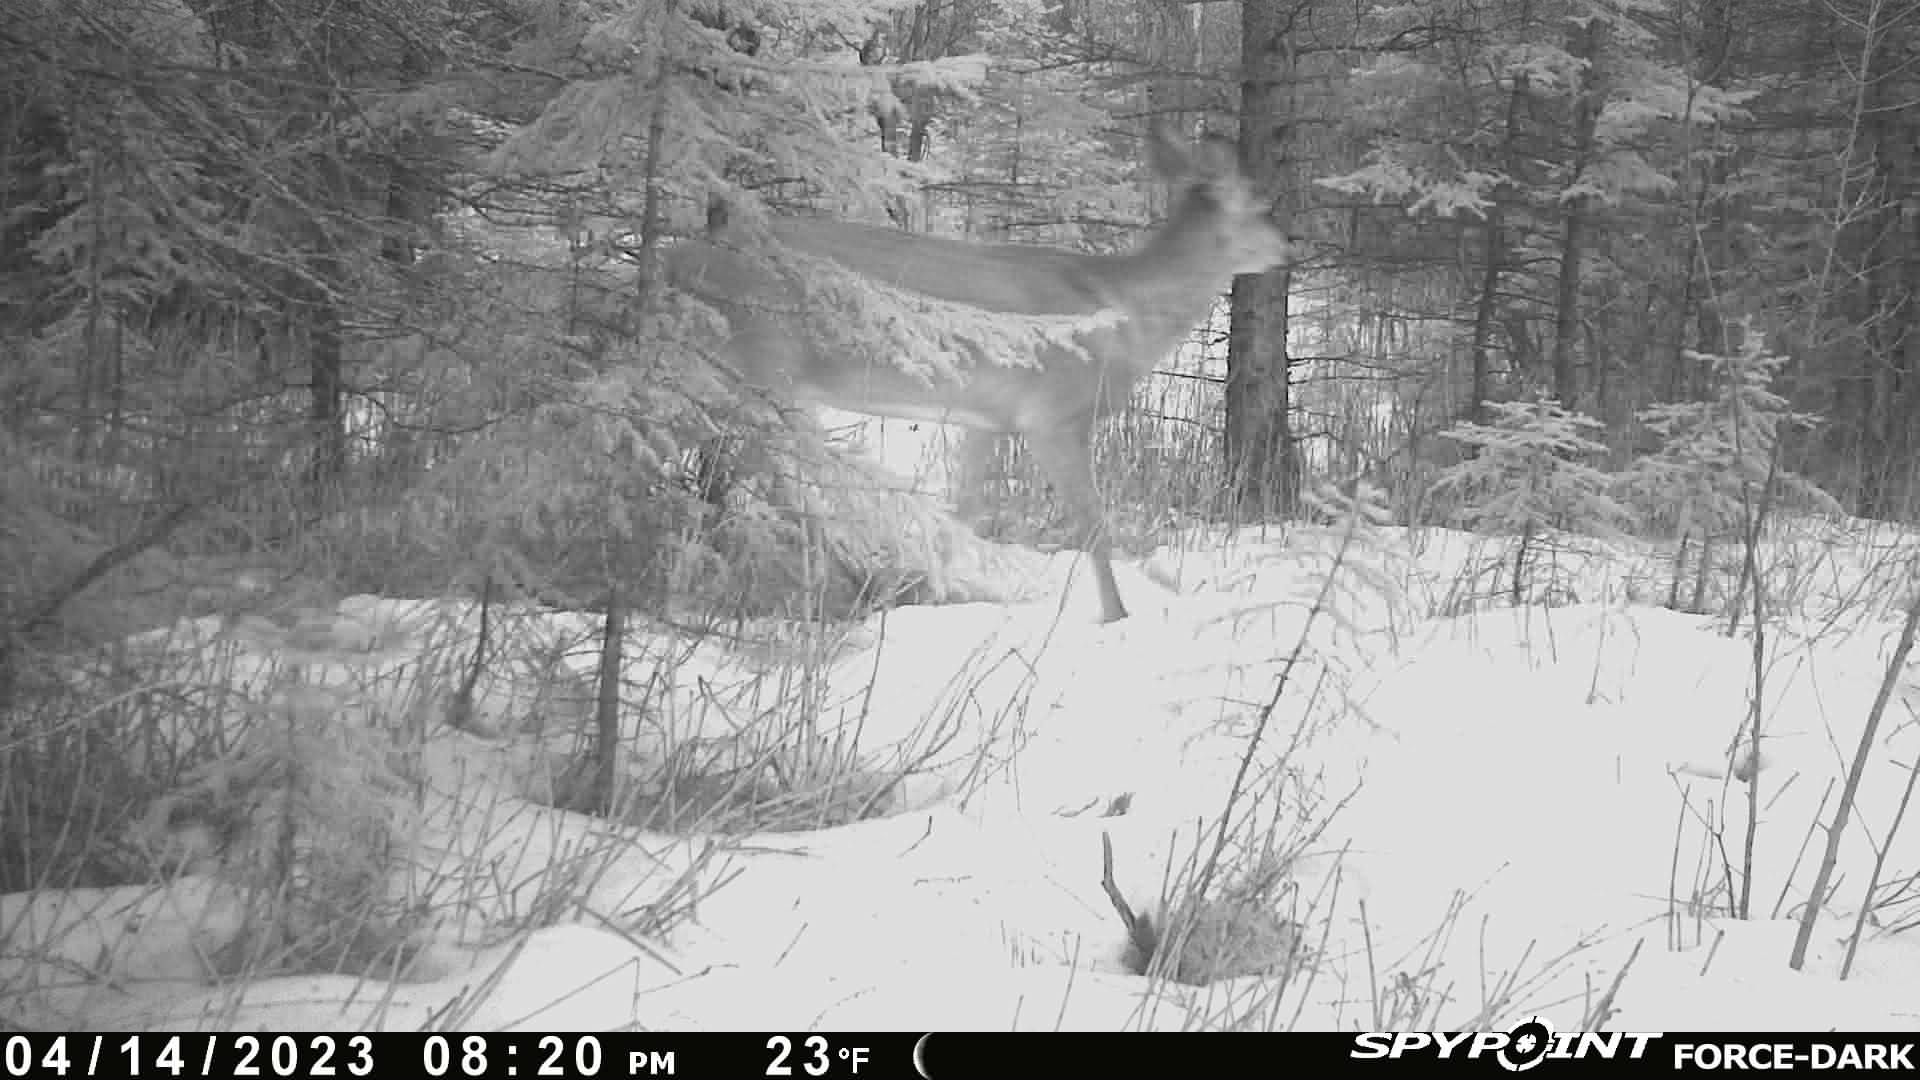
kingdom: Animalia
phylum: Chordata
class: Mammalia
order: Artiodactyla
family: Cervidae
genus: Odocoileus
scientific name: Odocoileus virginianus
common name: White-tailed deer
